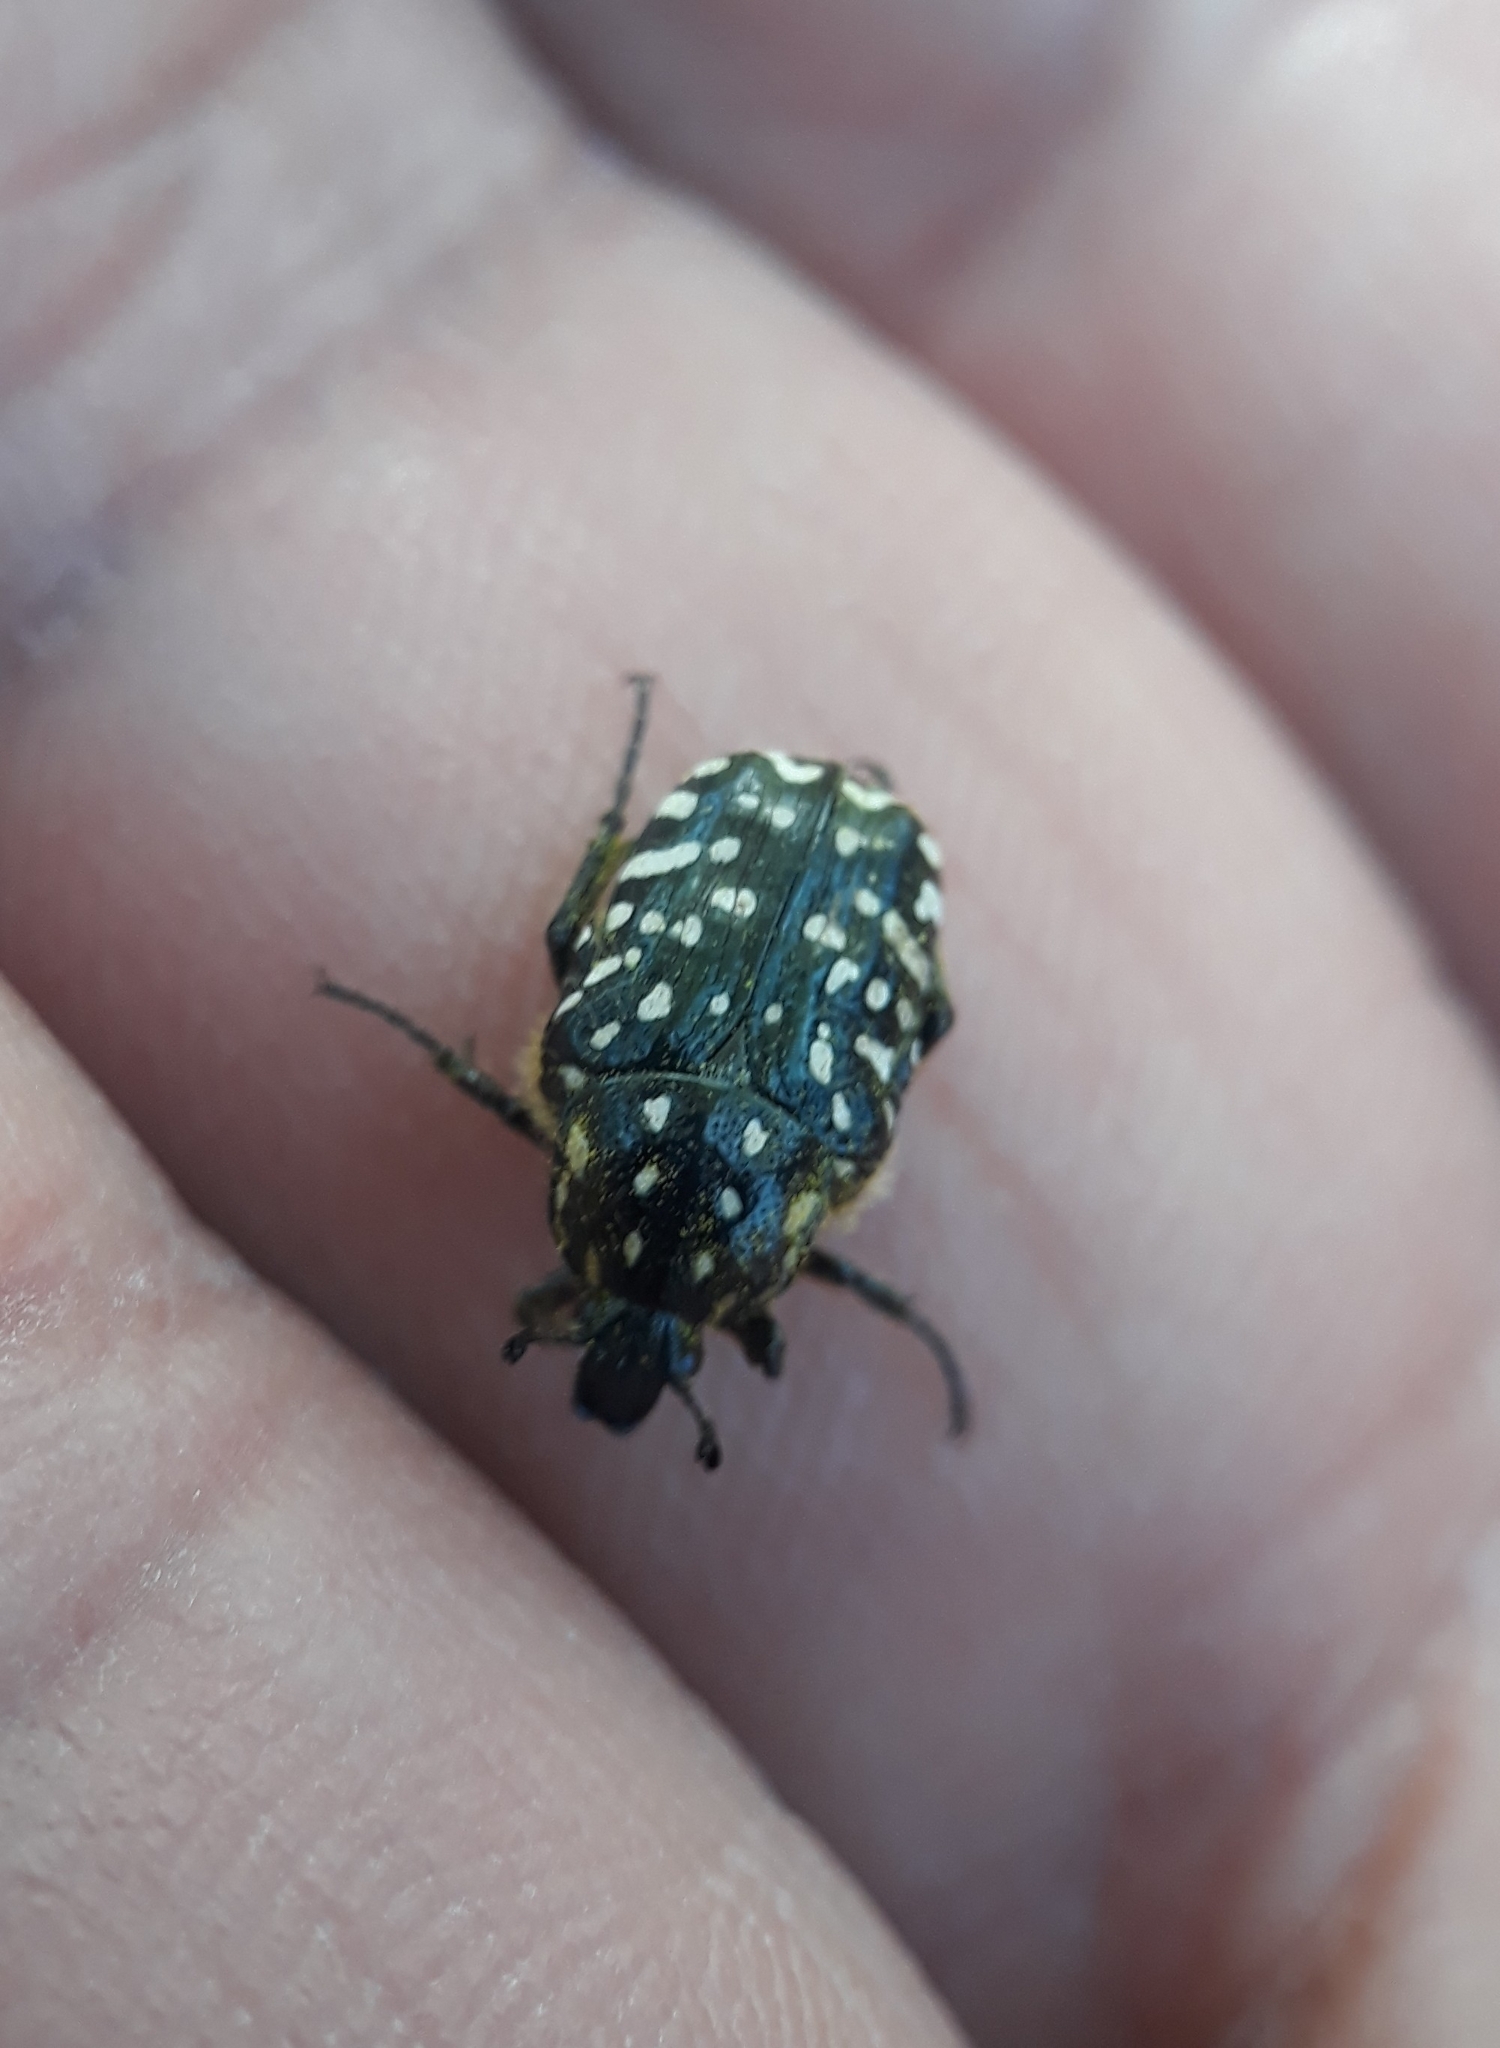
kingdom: Animalia
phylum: Arthropoda
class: Insecta
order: Coleoptera
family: Scarabaeidae
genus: Oxythyrea
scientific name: Oxythyrea funesta
